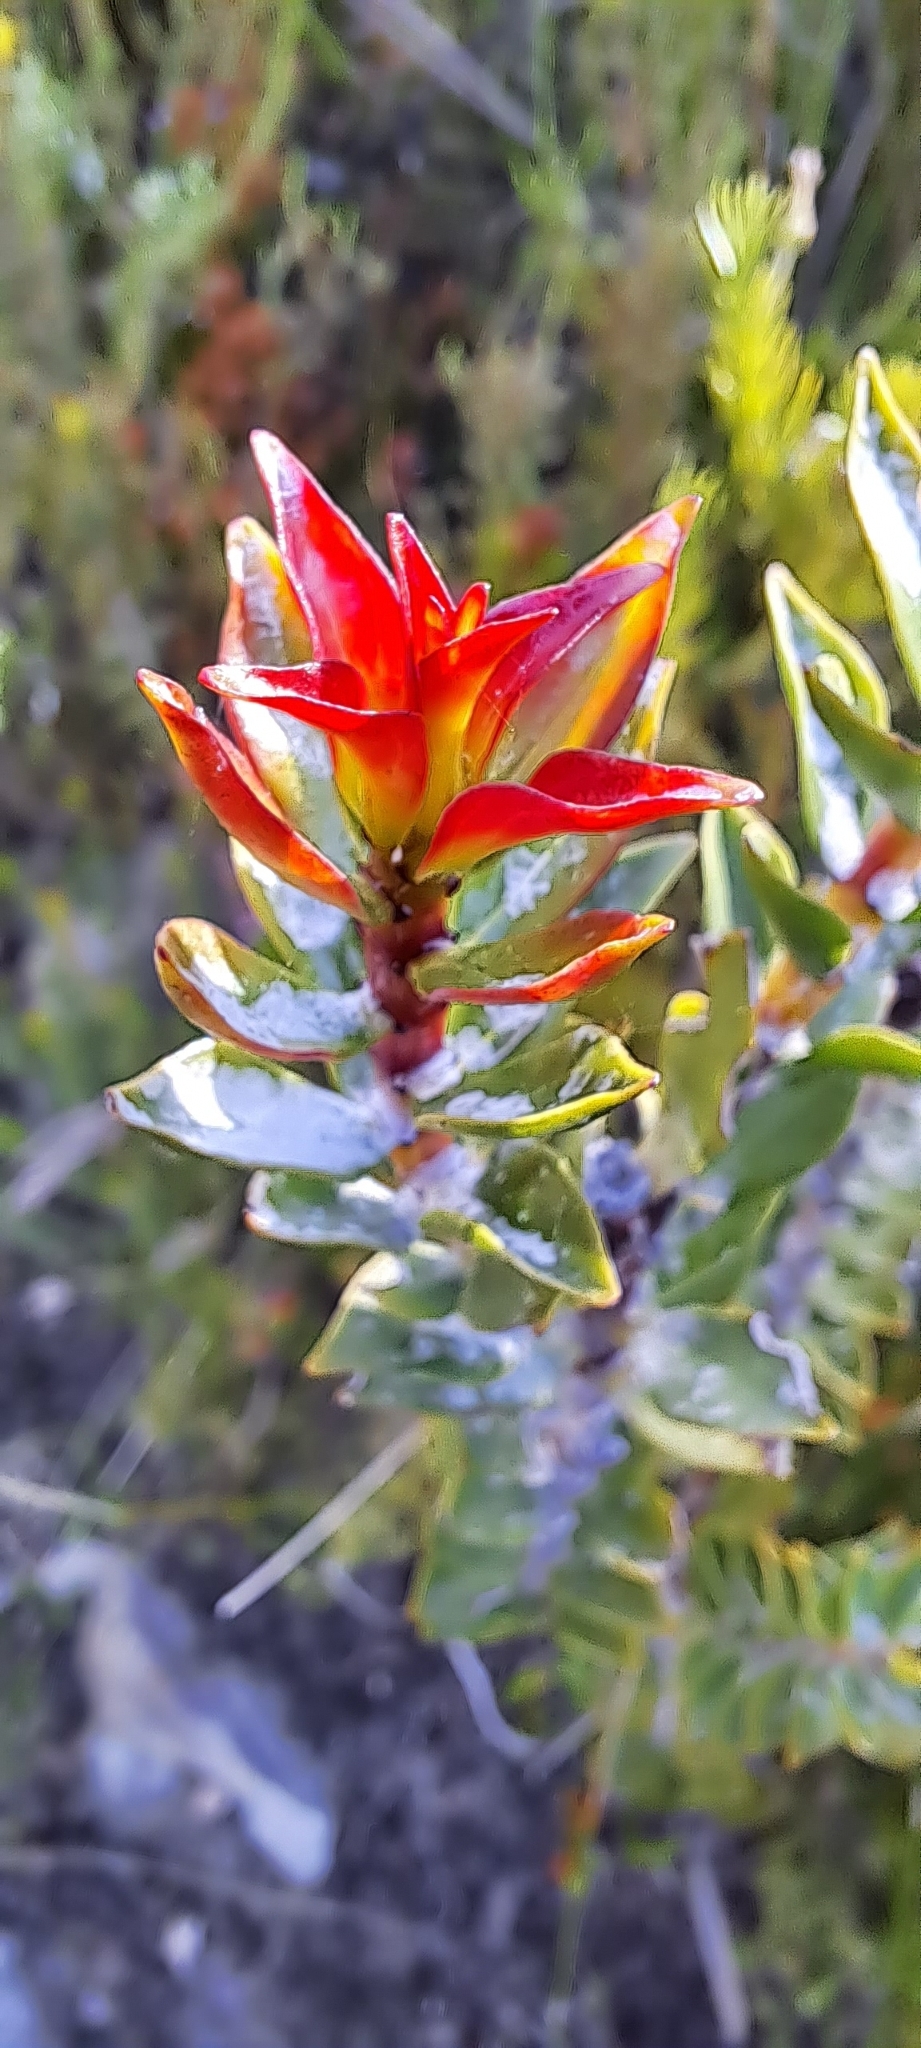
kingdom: Plantae
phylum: Tracheophyta
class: Magnoliopsida
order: Myrtales
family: Penaeaceae
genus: Saltera
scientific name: Saltera sarcocolla
